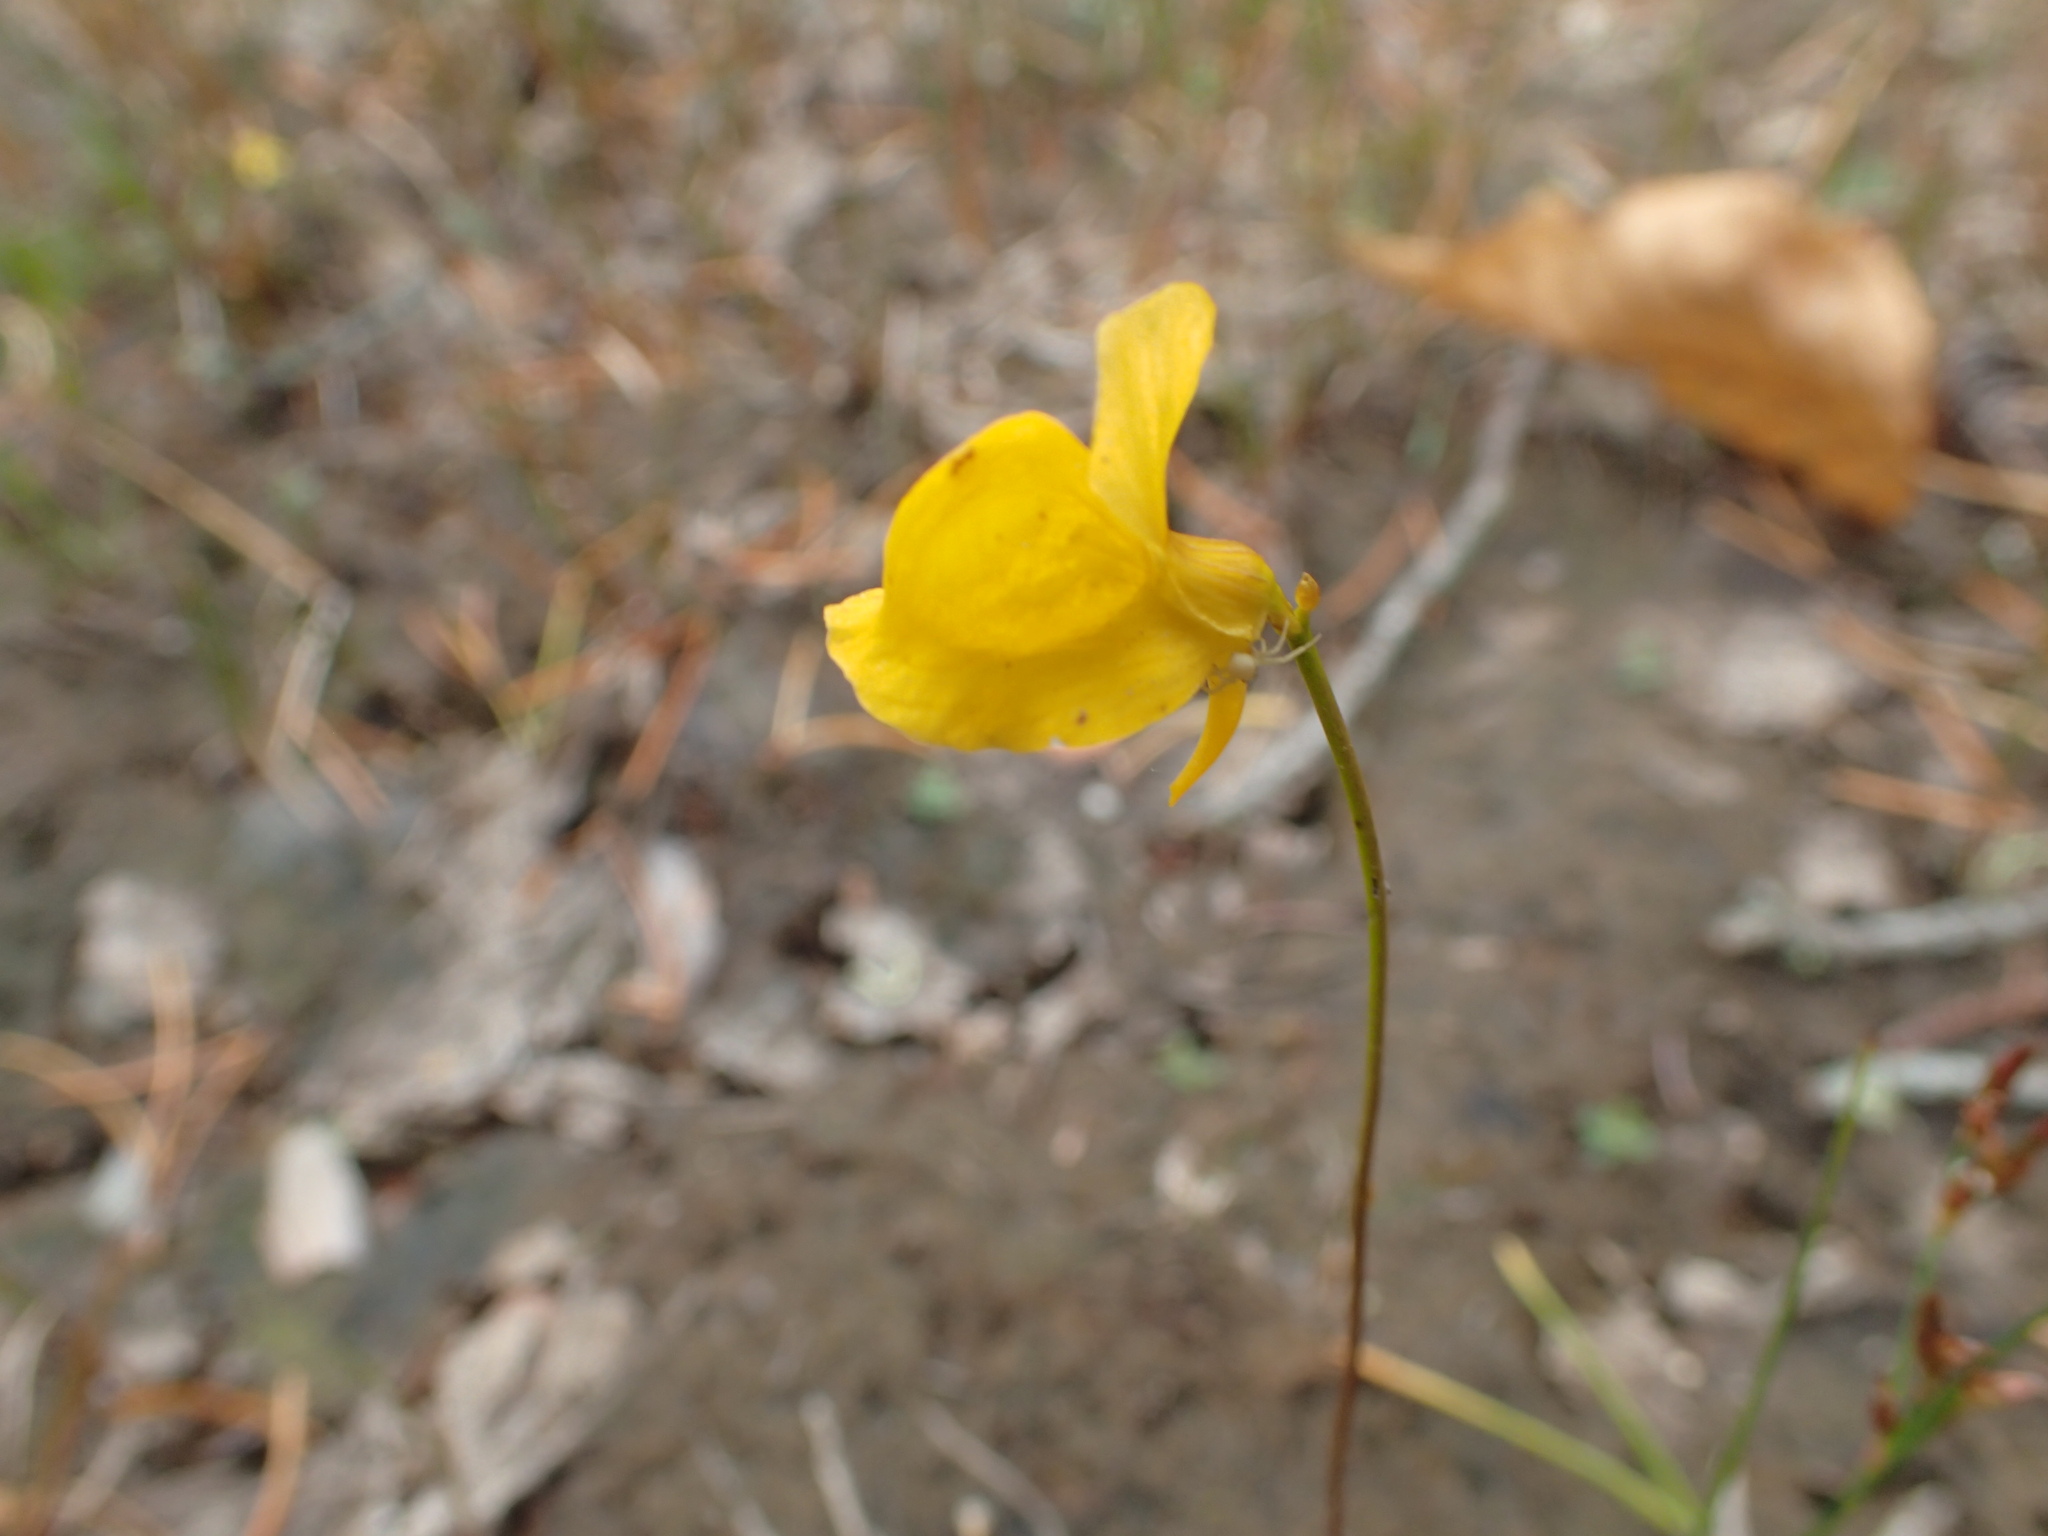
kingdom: Plantae
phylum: Tracheophyta
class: Magnoliopsida
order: Lamiales
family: Lentibulariaceae
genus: Utricularia
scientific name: Utricularia cornuta
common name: Horned bladderwort
